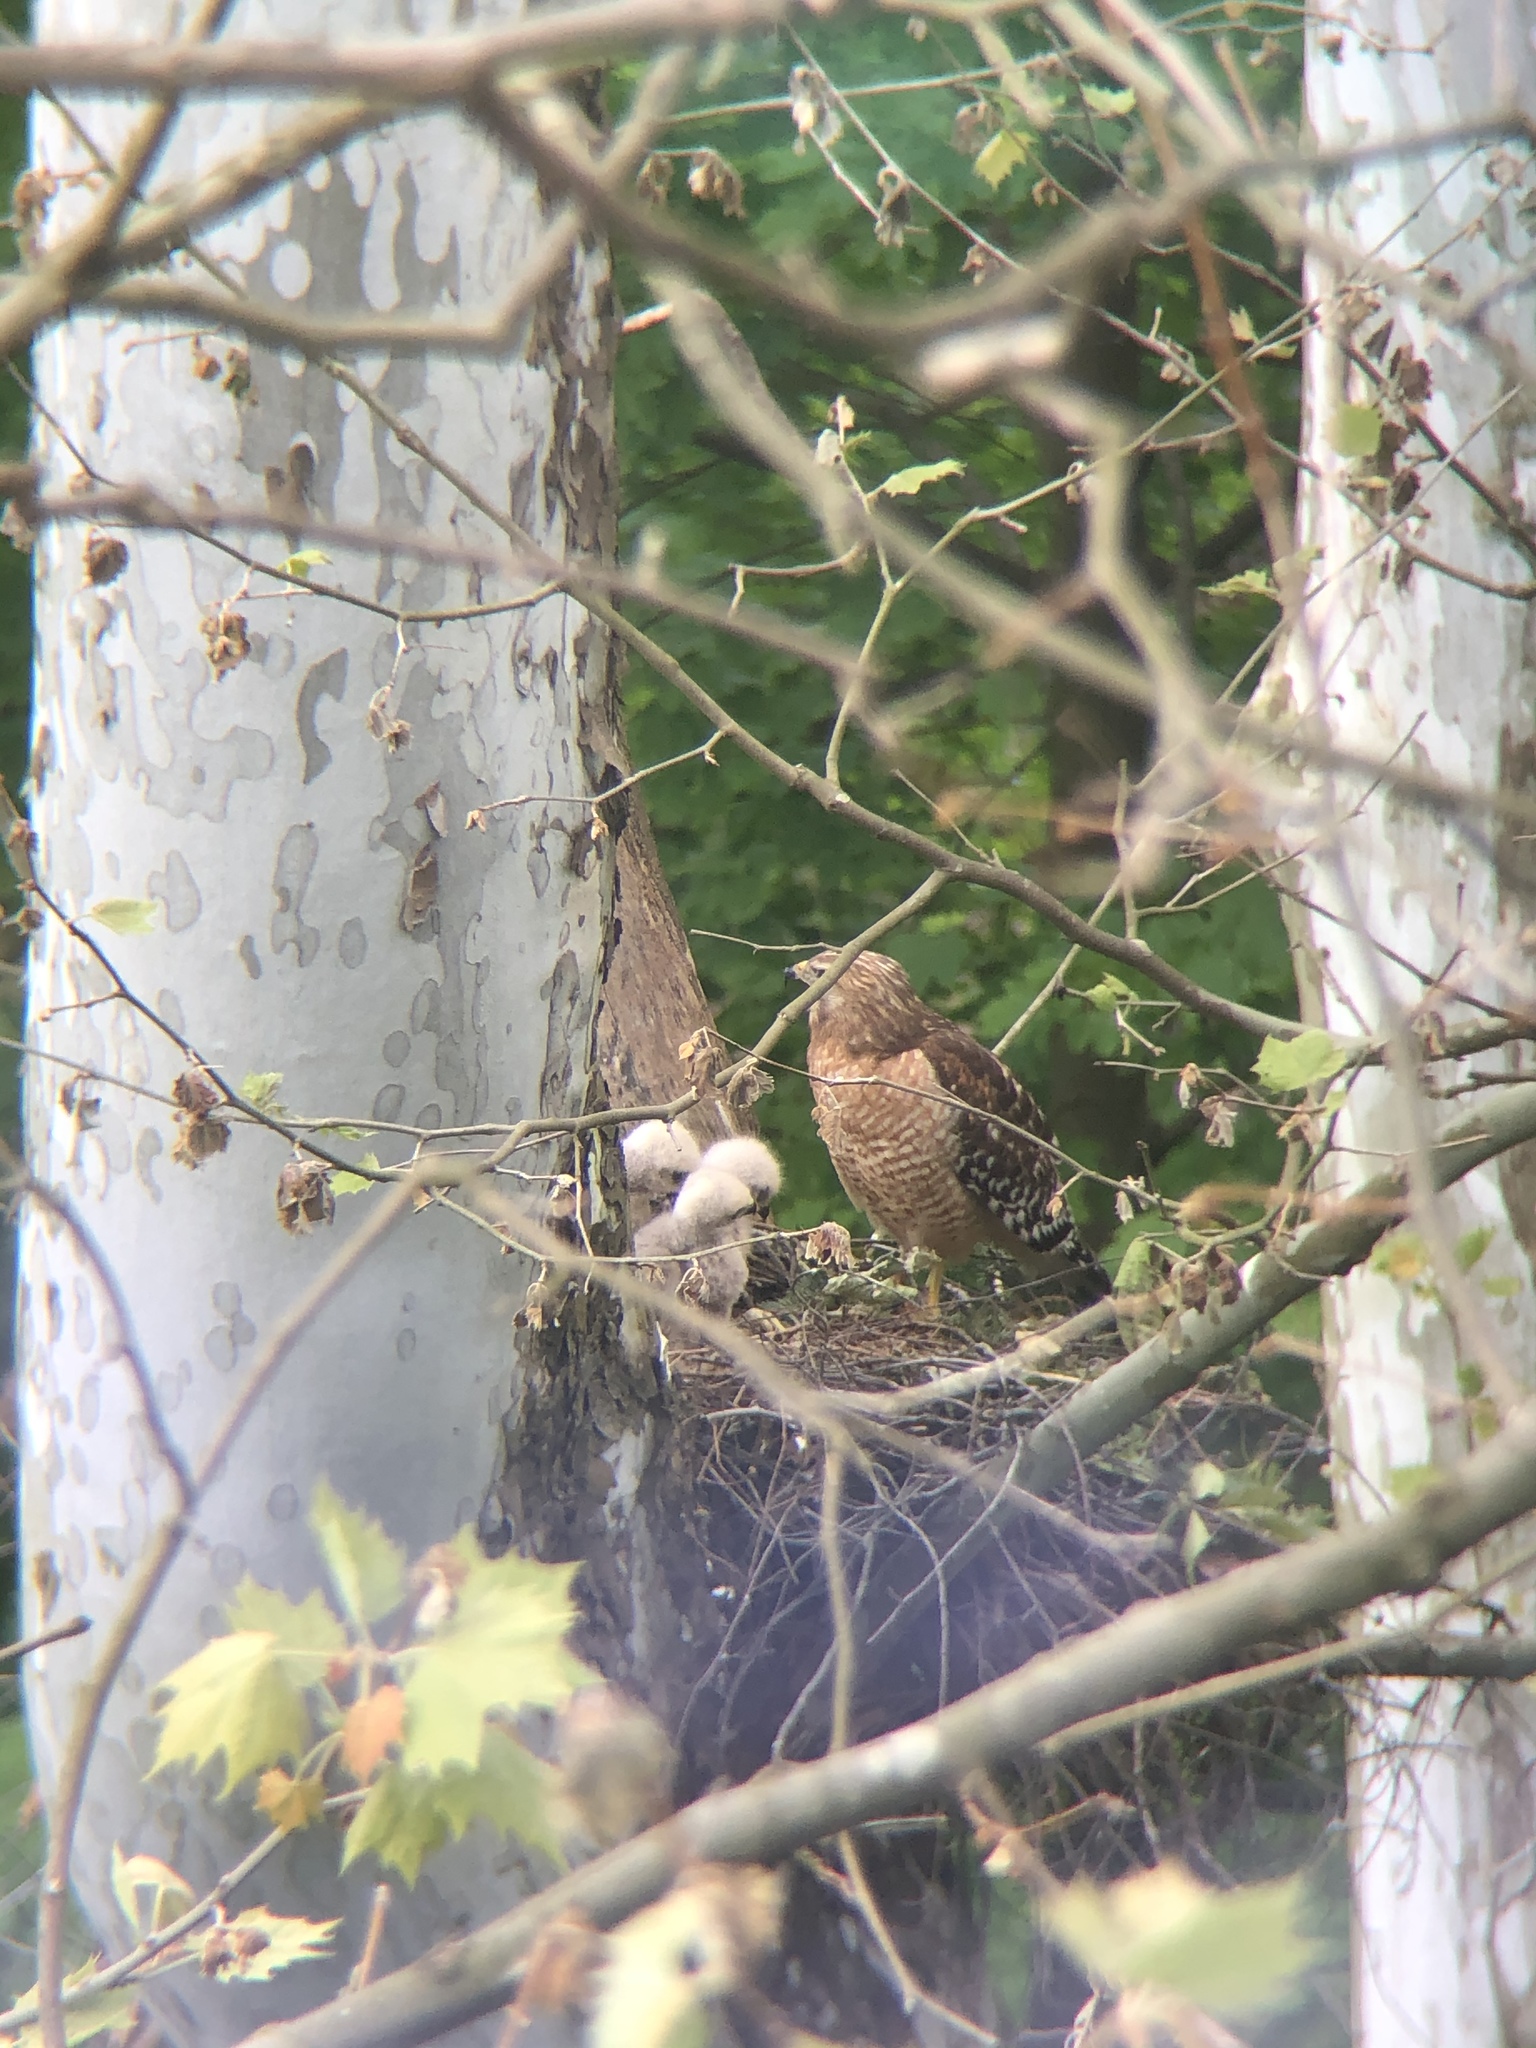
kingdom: Animalia
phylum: Chordata
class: Aves
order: Accipitriformes
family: Accipitridae
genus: Buteo
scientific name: Buteo lineatus
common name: Red-shouldered hawk
